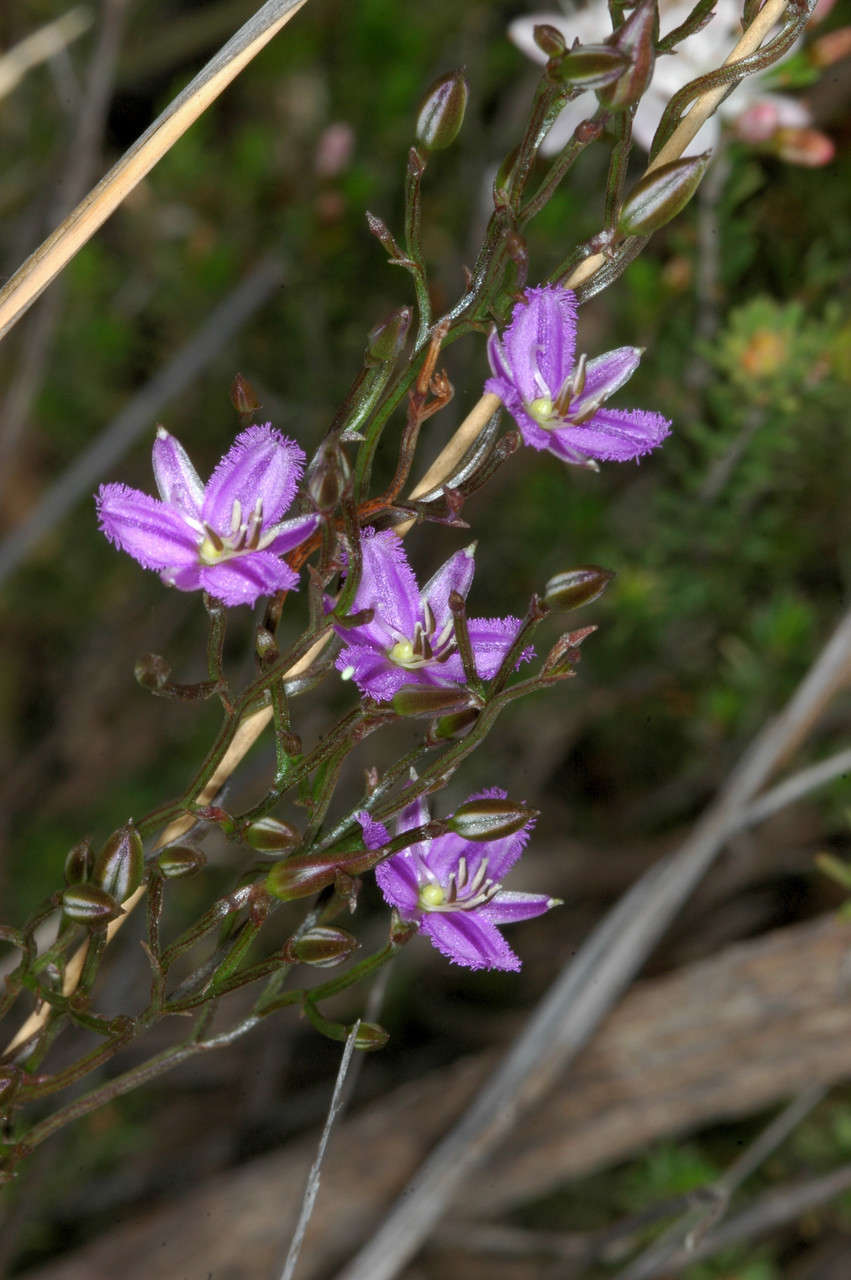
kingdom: Plantae
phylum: Tracheophyta
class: Liliopsida
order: Asparagales
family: Asparagaceae
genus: Thysanotus
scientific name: Thysanotus patersonii
